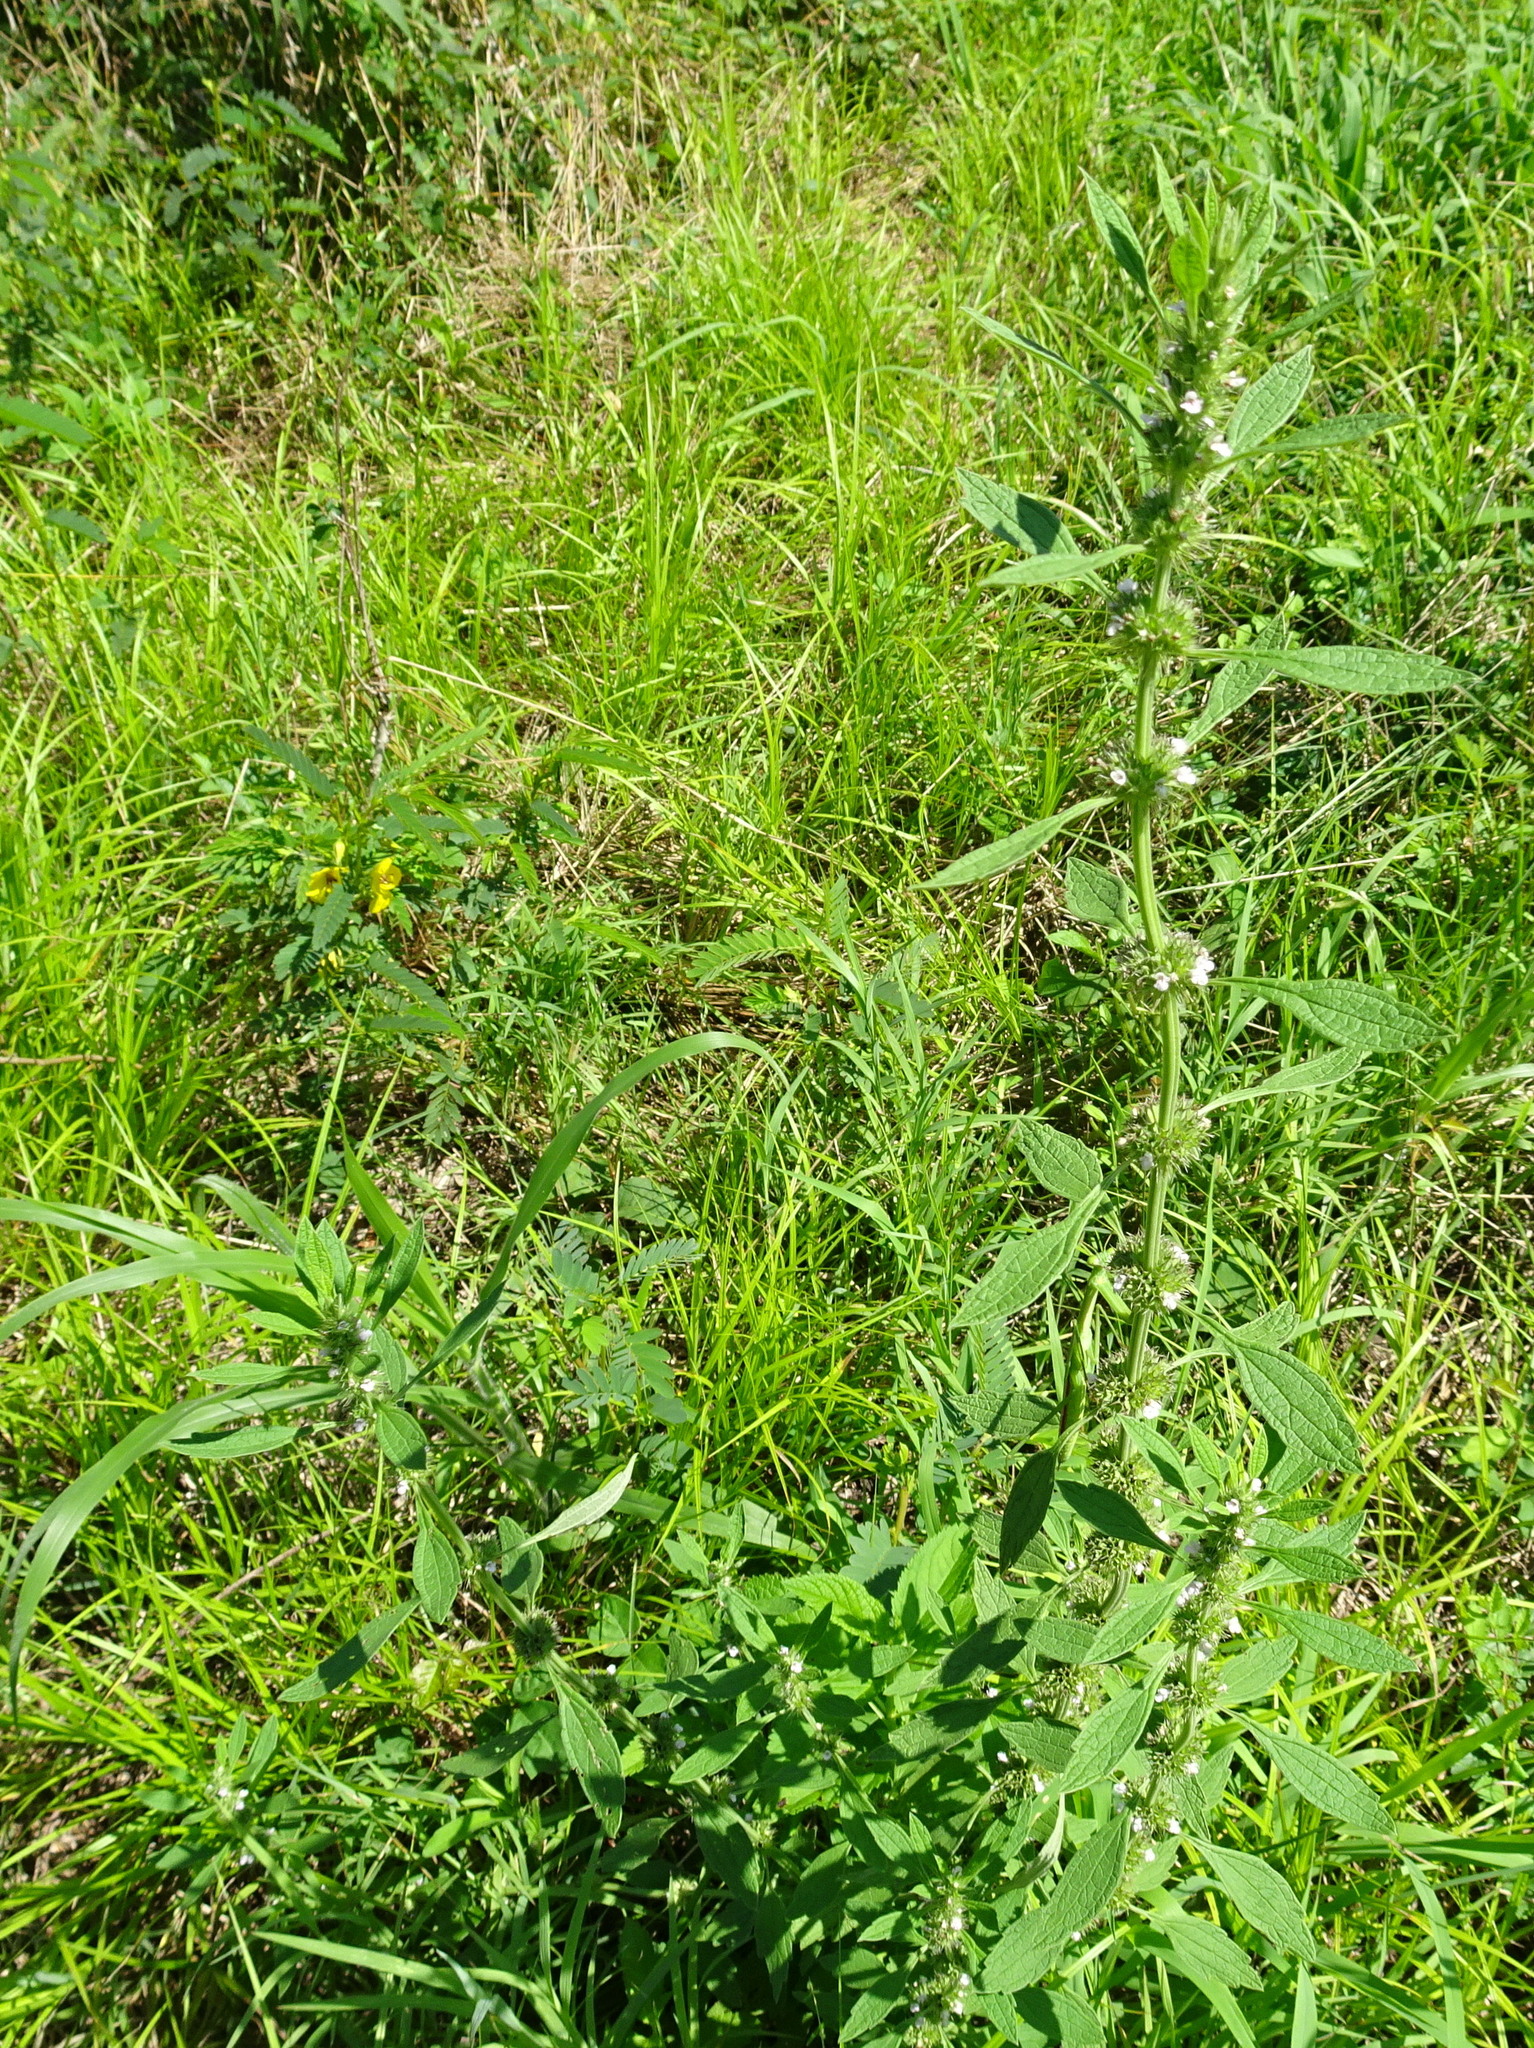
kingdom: Plantae
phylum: Tracheophyta
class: Magnoliopsida
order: Lamiales
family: Lamiaceae
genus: Chaiturus
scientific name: Chaiturus marrubiastrum
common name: Lion's tail
